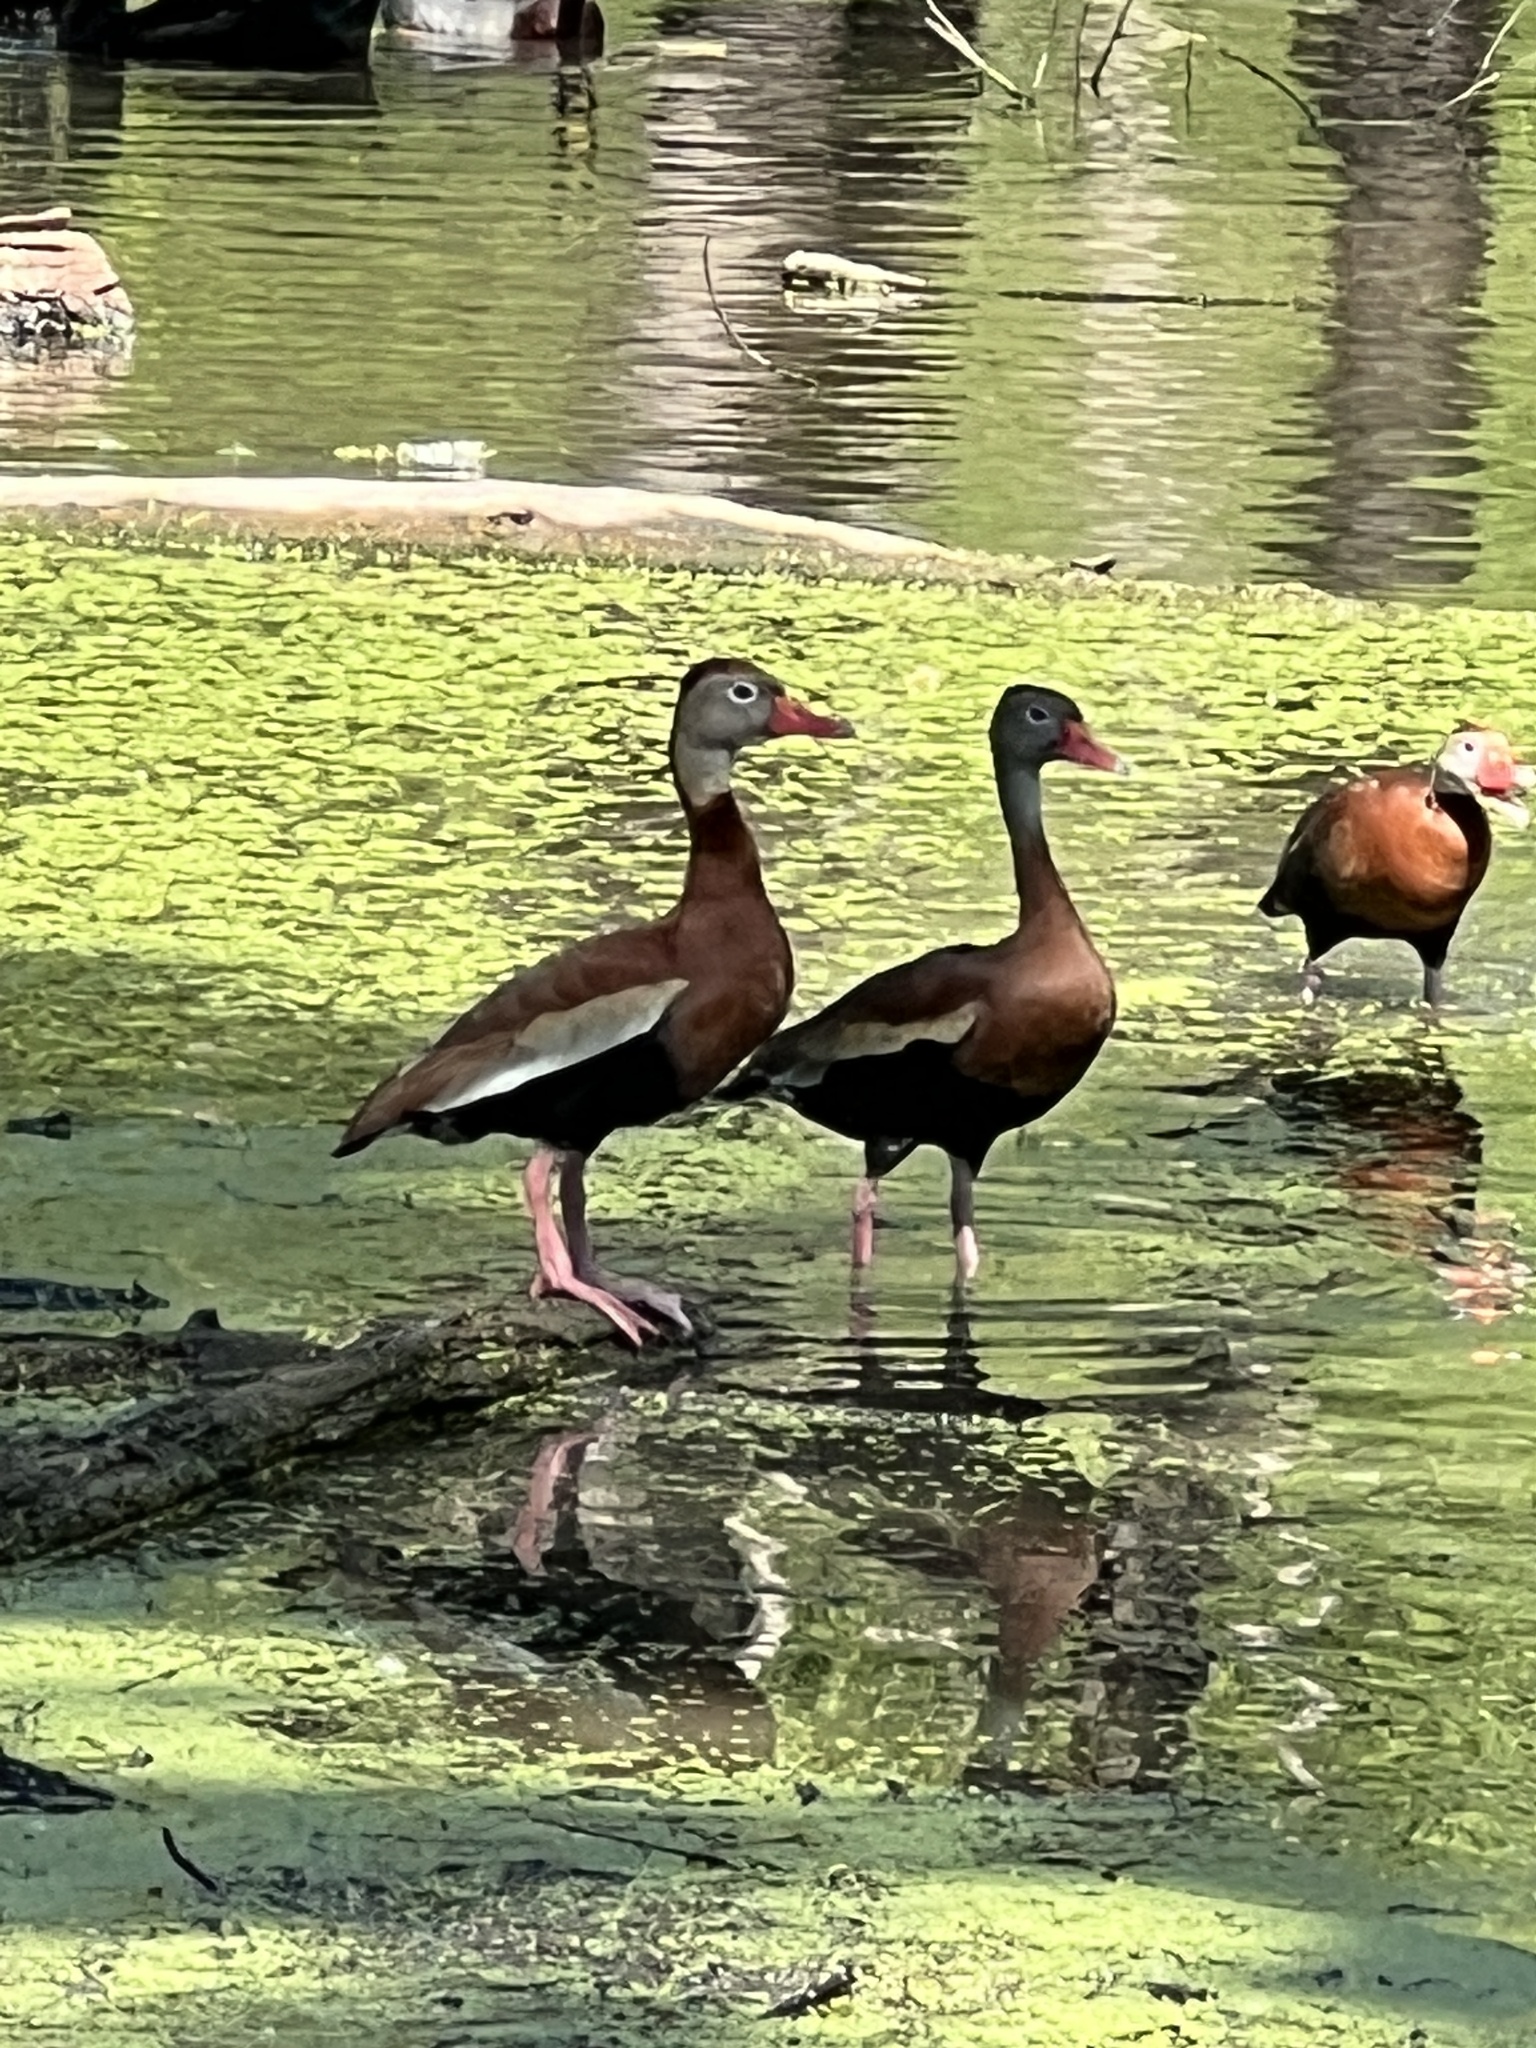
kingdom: Animalia
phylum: Chordata
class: Aves
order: Anseriformes
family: Anatidae
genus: Dendrocygna
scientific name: Dendrocygna autumnalis
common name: Black-bellied whistling duck
